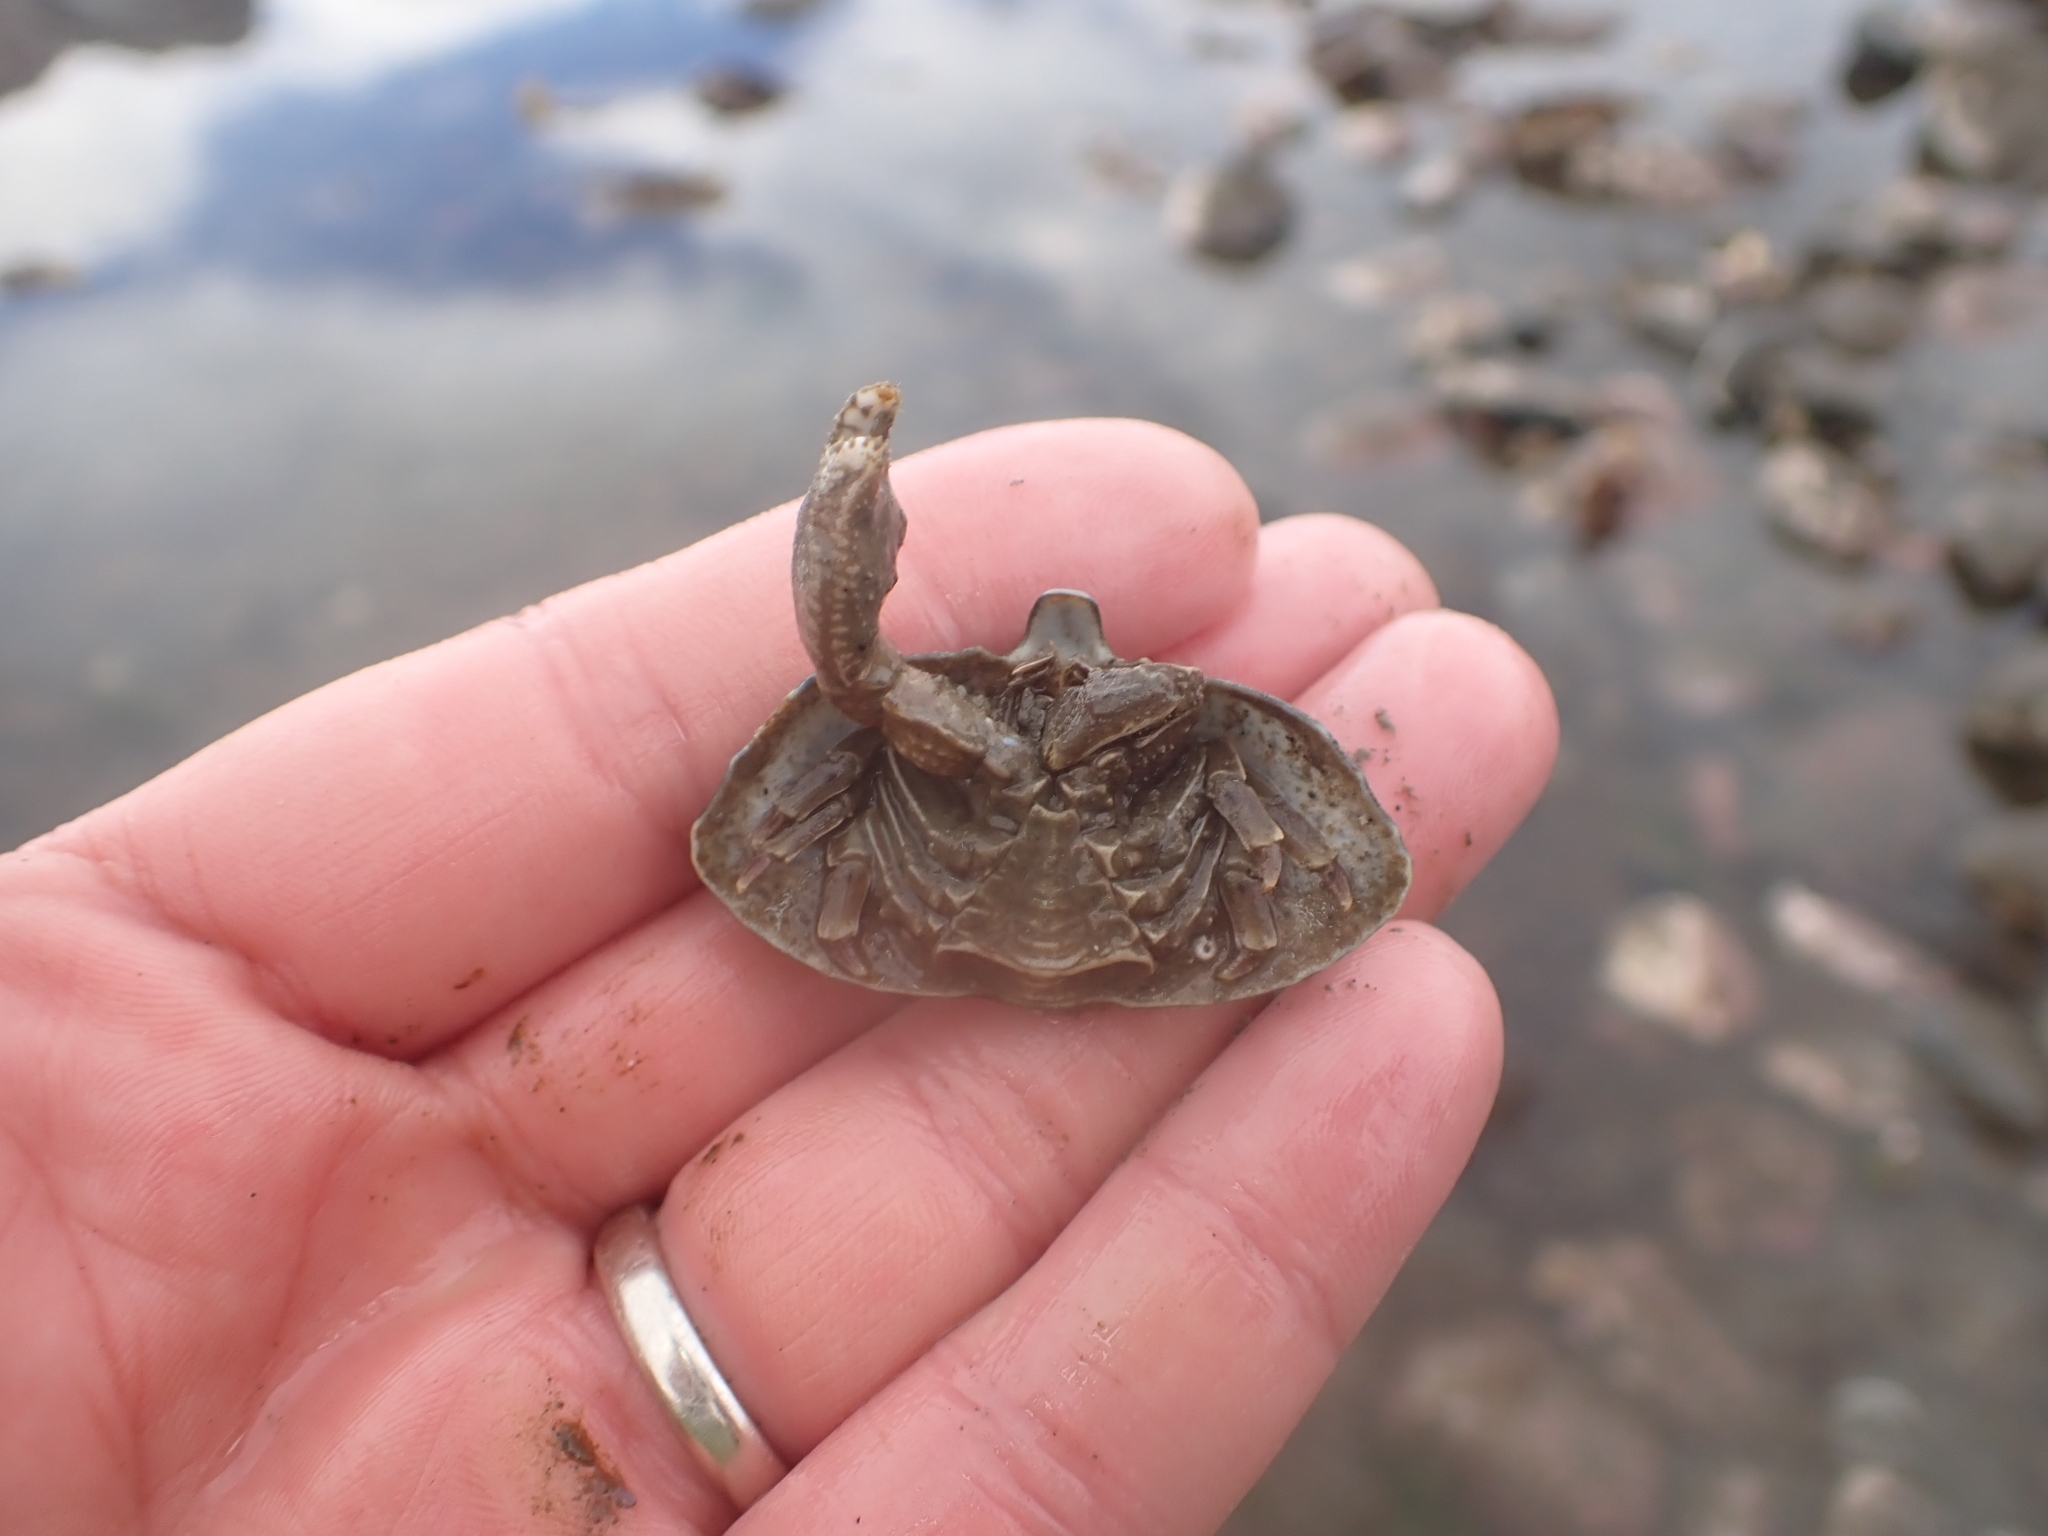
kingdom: Animalia
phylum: Arthropoda
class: Malacostraca
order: Decapoda
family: Lithodidae
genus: Cryptolithodes
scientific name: Cryptolithodes typicus
